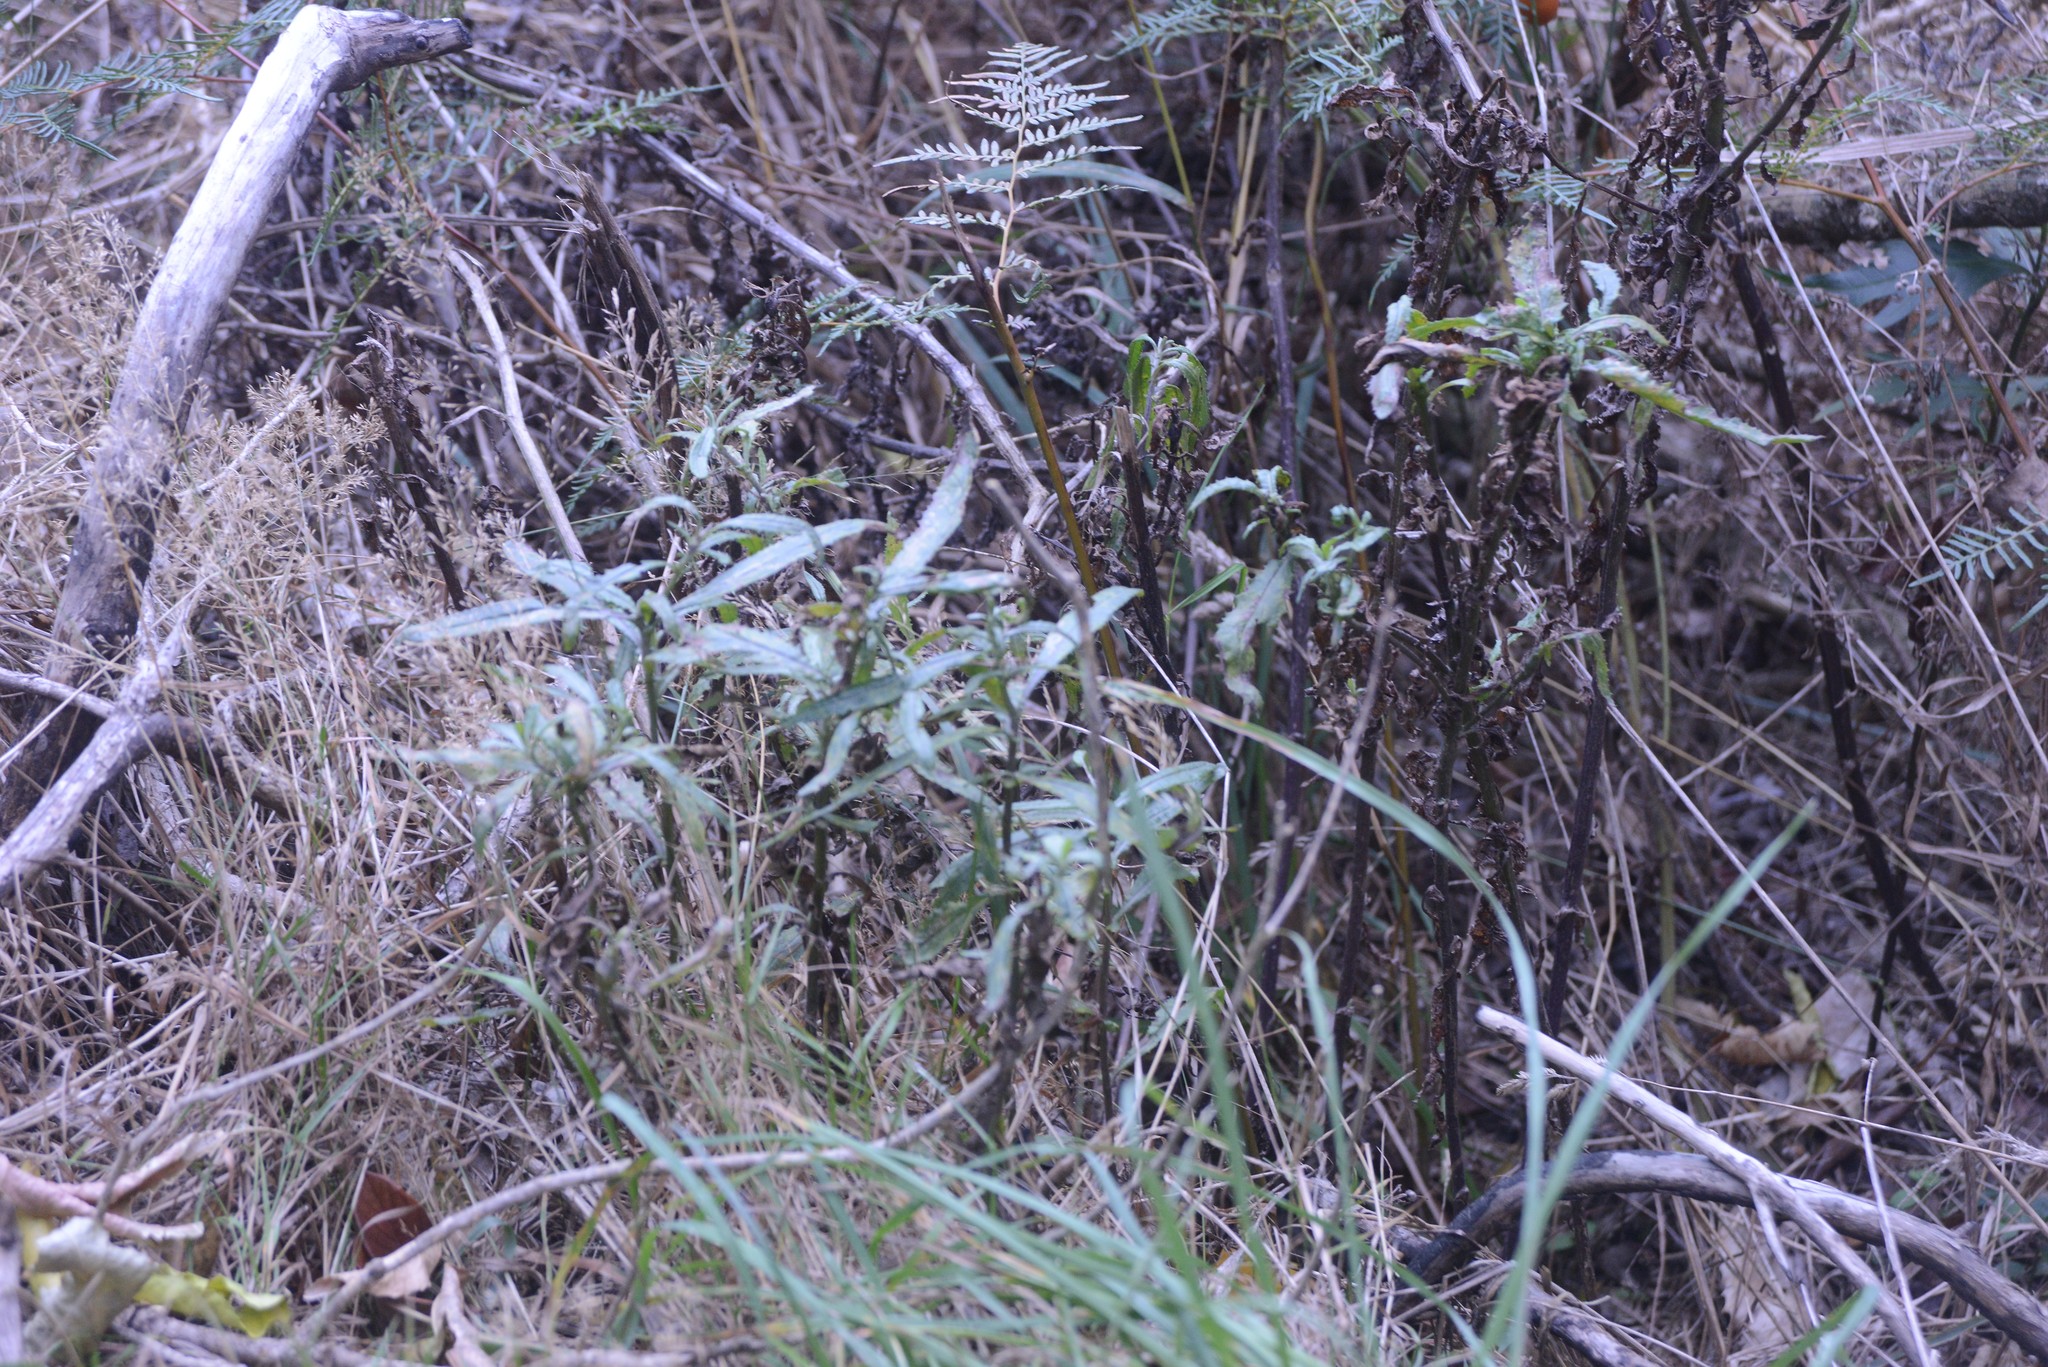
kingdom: Plantae
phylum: Tracheophyta
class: Magnoliopsida
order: Asterales
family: Asteraceae
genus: Senecio
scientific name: Senecio minimus
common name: Toothed fireweed
